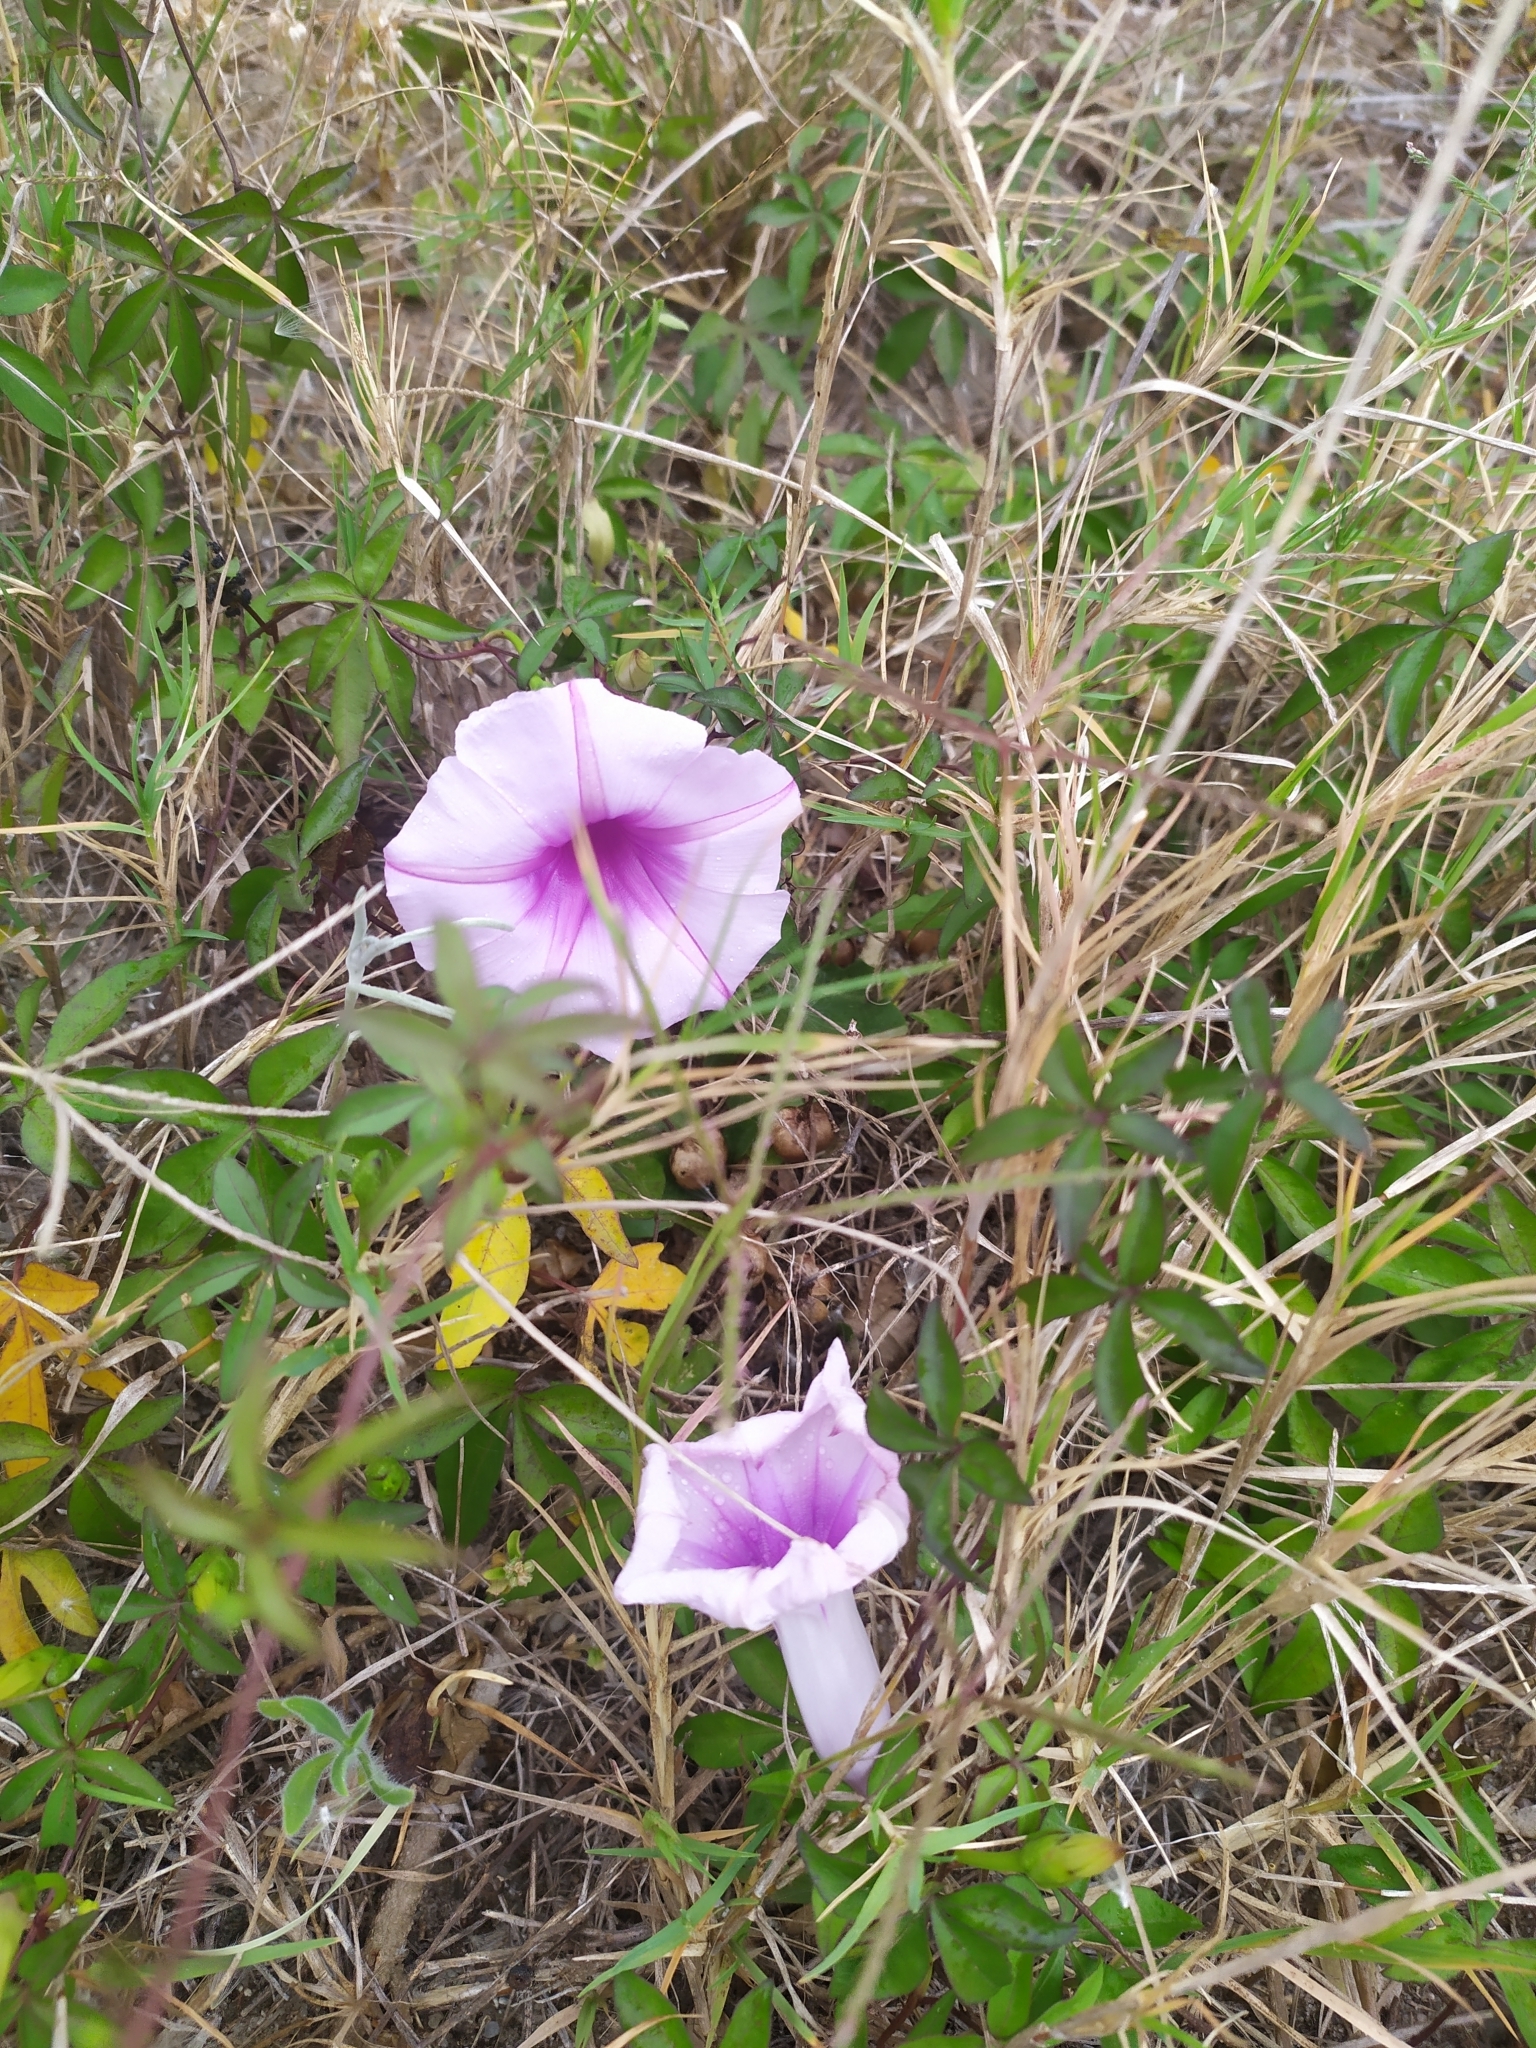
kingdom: Plantae
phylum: Tracheophyta
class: Magnoliopsida
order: Solanales
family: Convolvulaceae
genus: Ipomoea
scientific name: Ipomoea cairica
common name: Mile a minute vine
